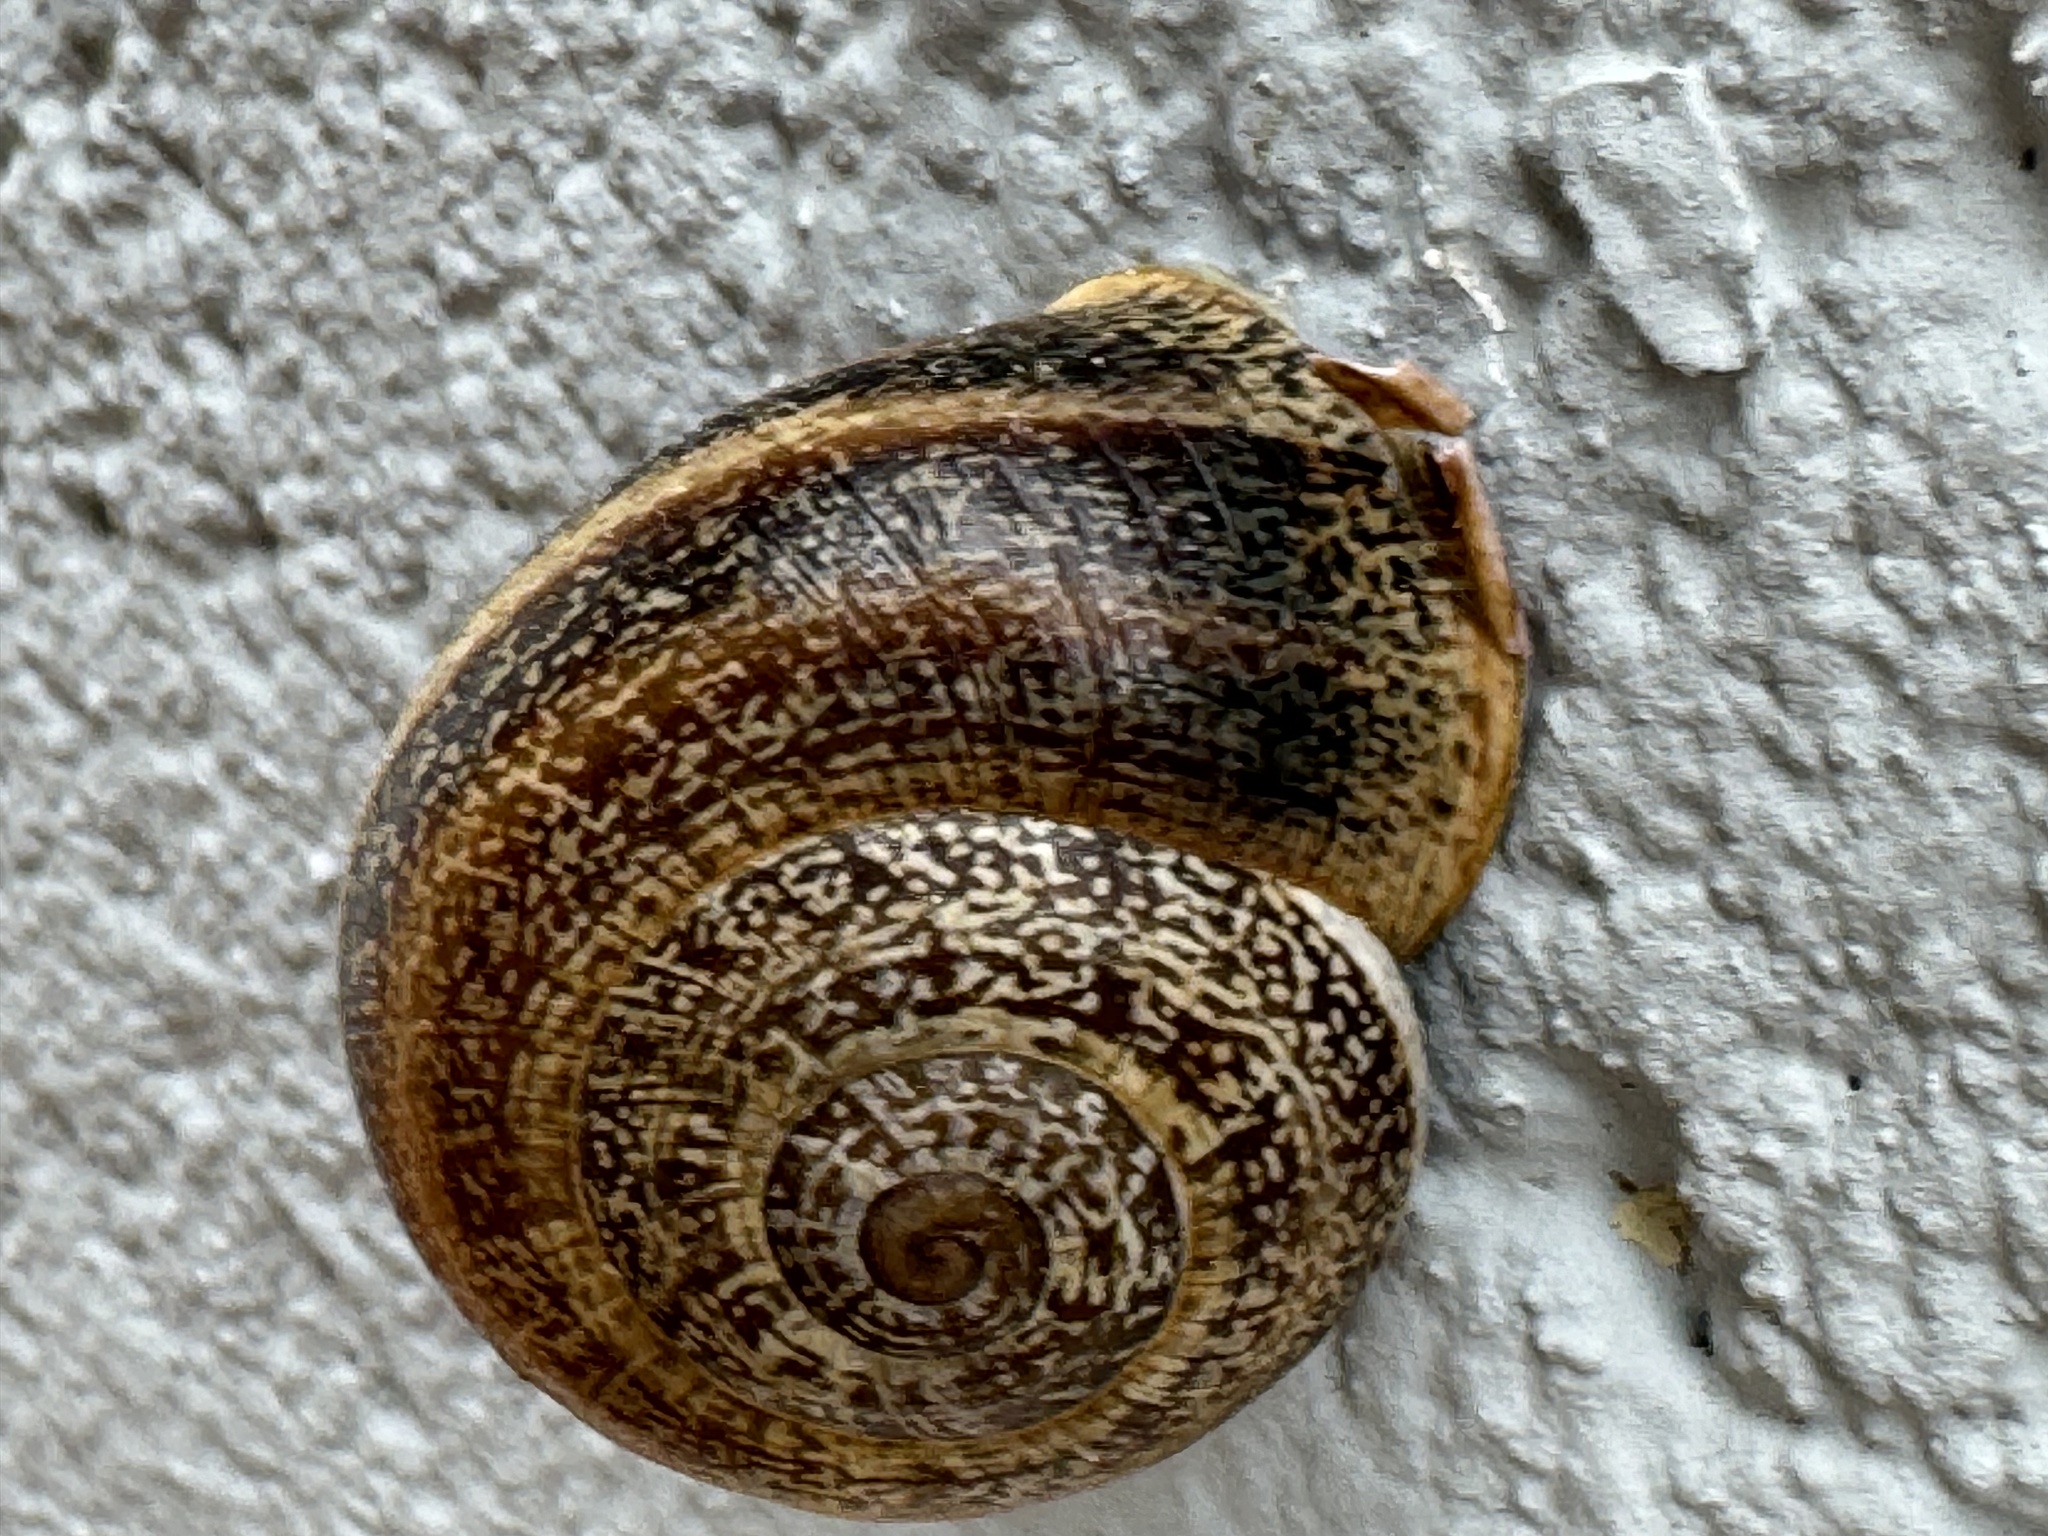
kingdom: Animalia
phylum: Mollusca
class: Gastropoda
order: Stylommatophora
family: Helicidae
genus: Otala
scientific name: Otala lactea
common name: Milk snail
